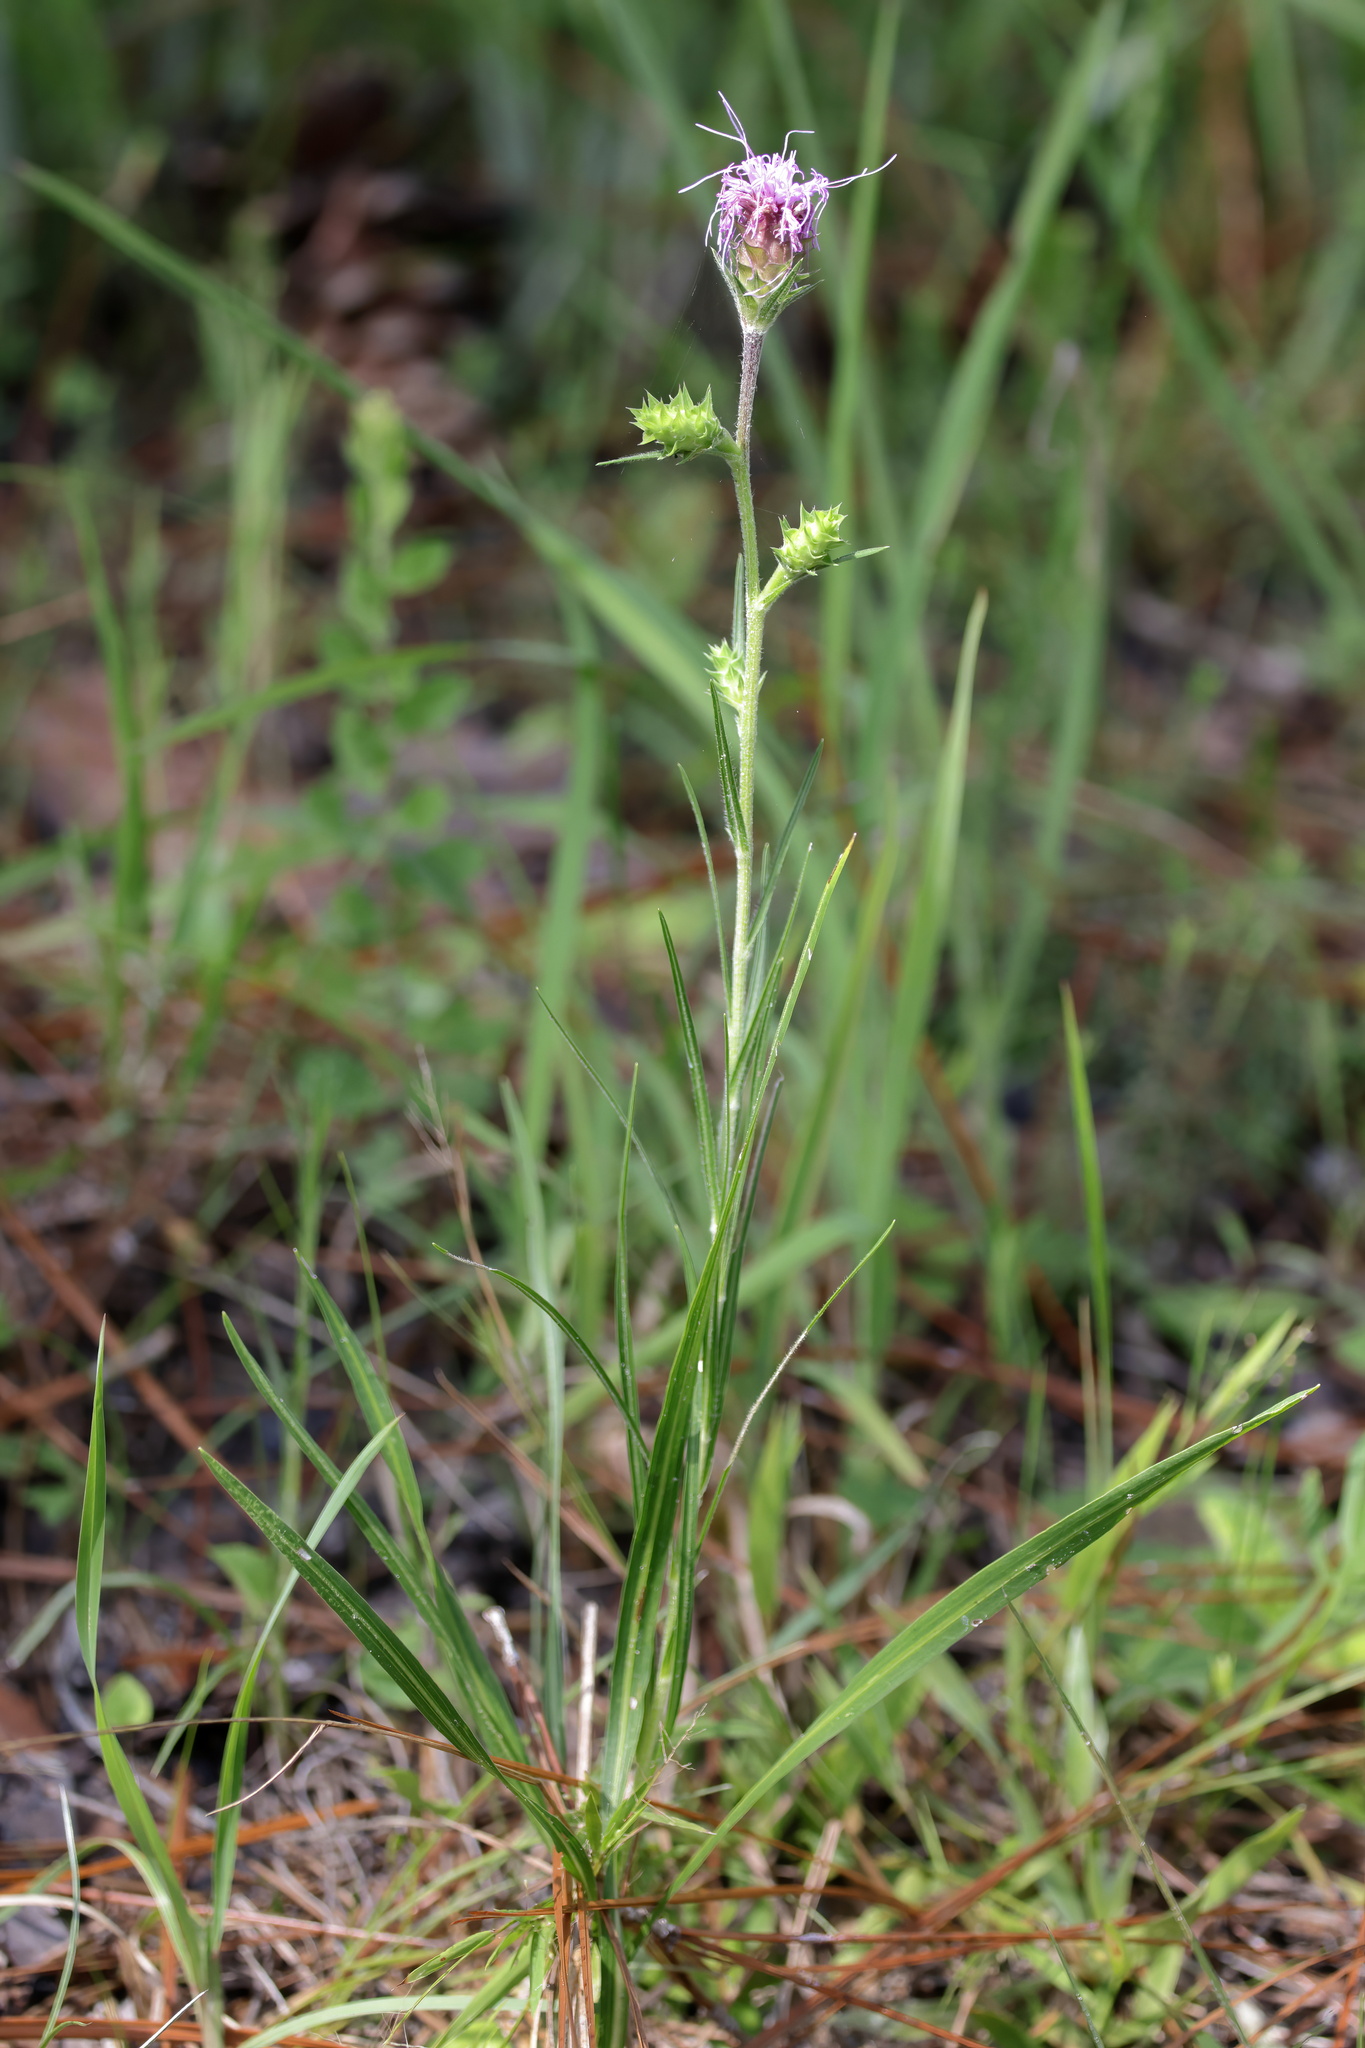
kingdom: Plantae
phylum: Tracheophyta
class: Magnoliopsida
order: Asterales
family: Asteraceae
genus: Liatris
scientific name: Liatris squarrosa
